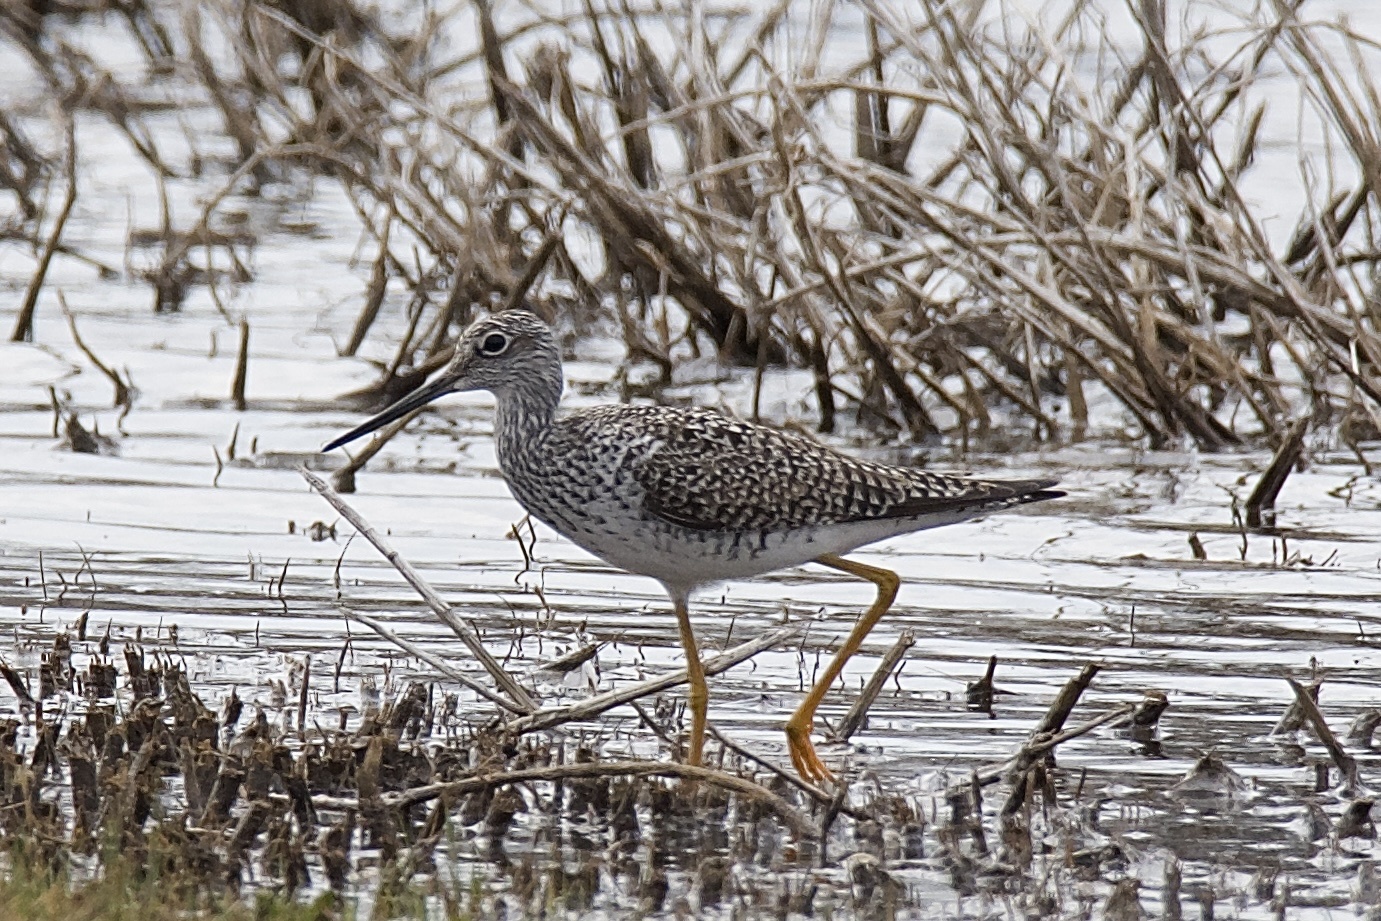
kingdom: Animalia
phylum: Chordata
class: Aves
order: Charadriiformes
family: Scolopacidae
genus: Tringa
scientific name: Tringa melanoleuca
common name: Greater yellowlegs
